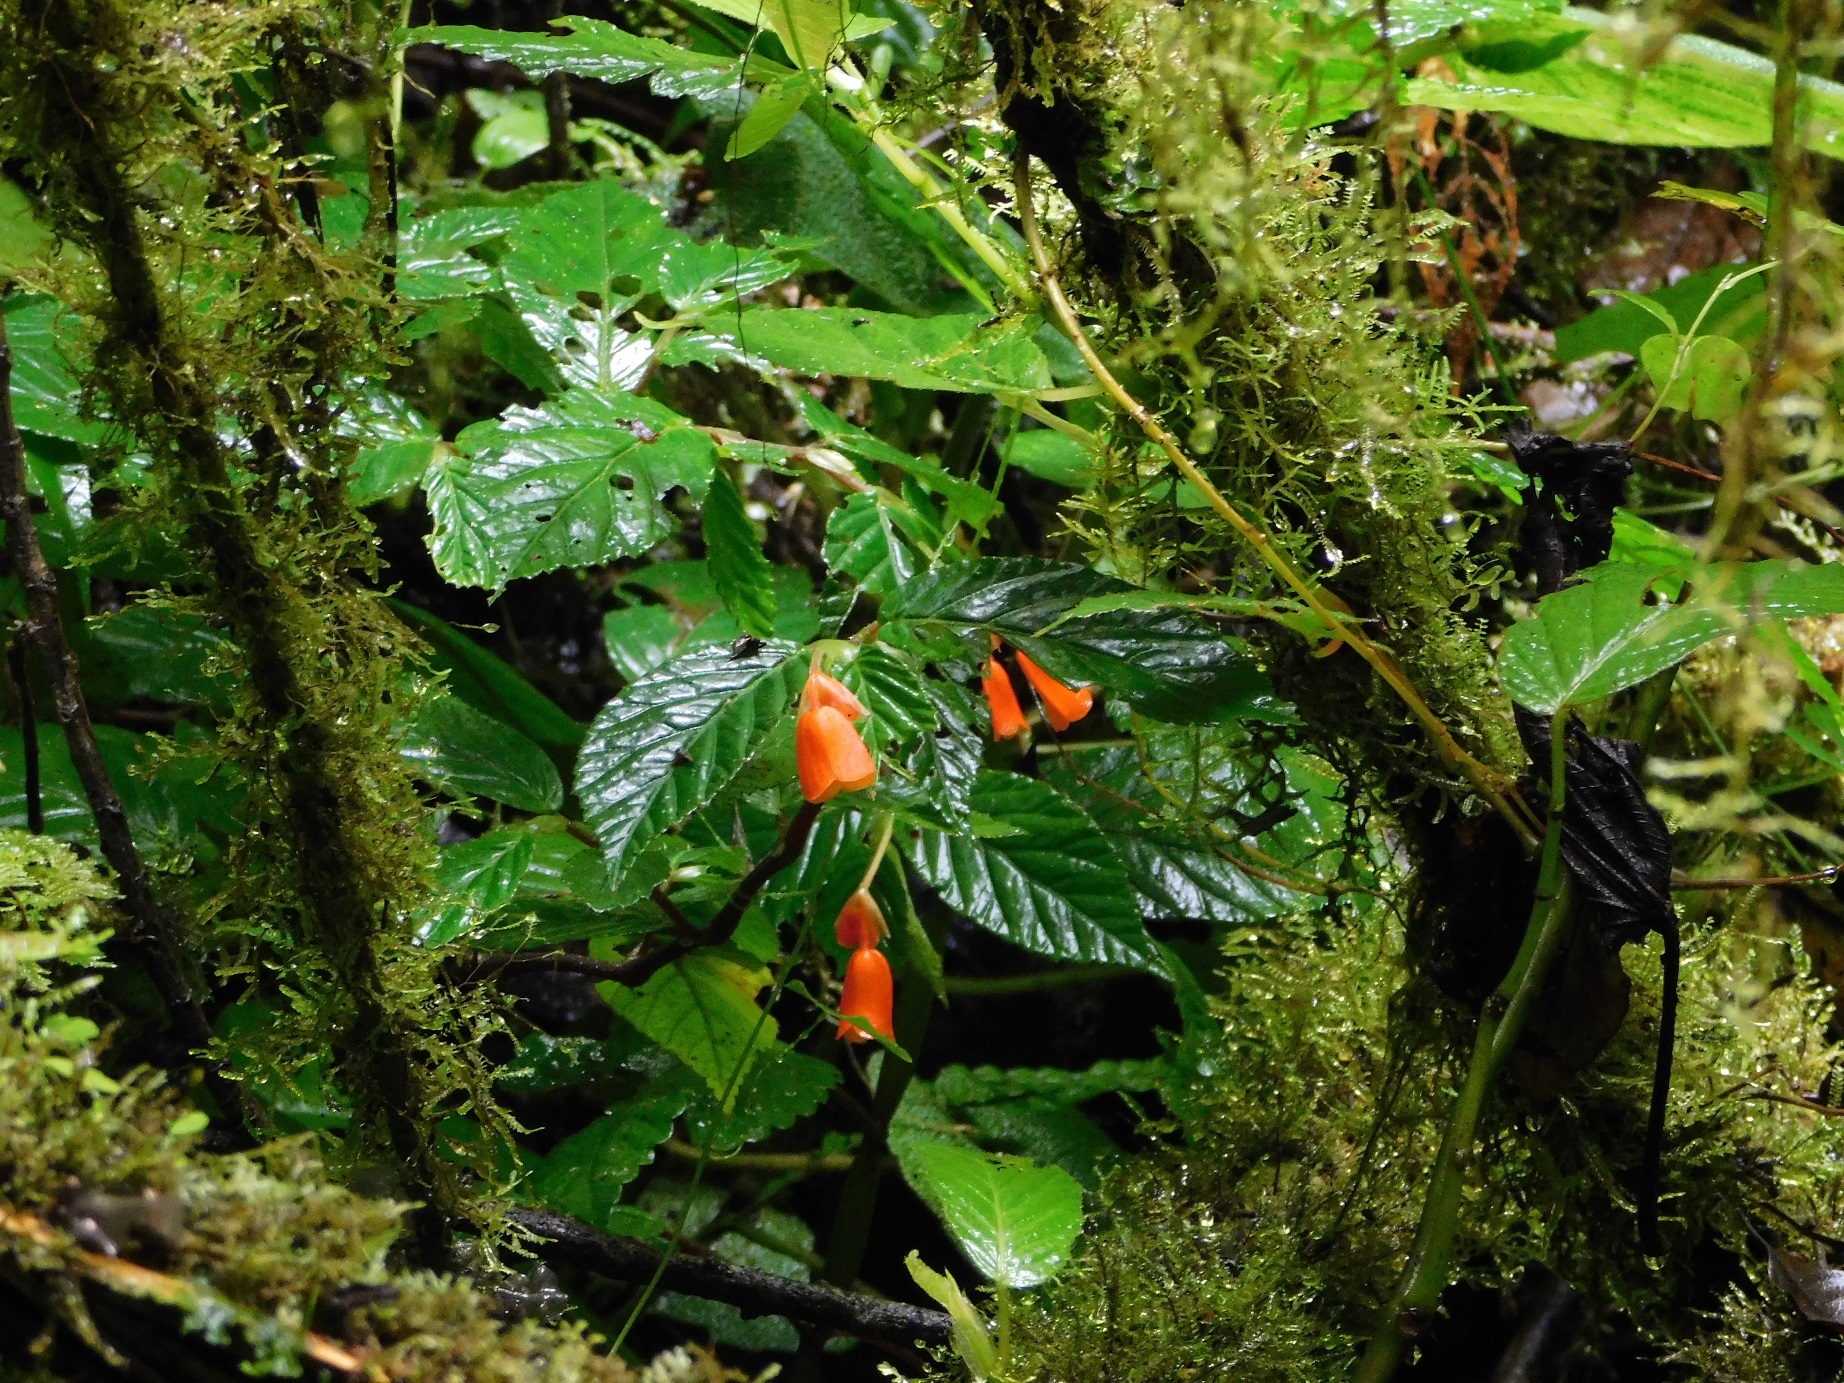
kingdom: Plantae
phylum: Tracheophyta
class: Magnoliopsida
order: Cucurbitales
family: Begoniaceae
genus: Begonia
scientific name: Begonia kalbreyeri
